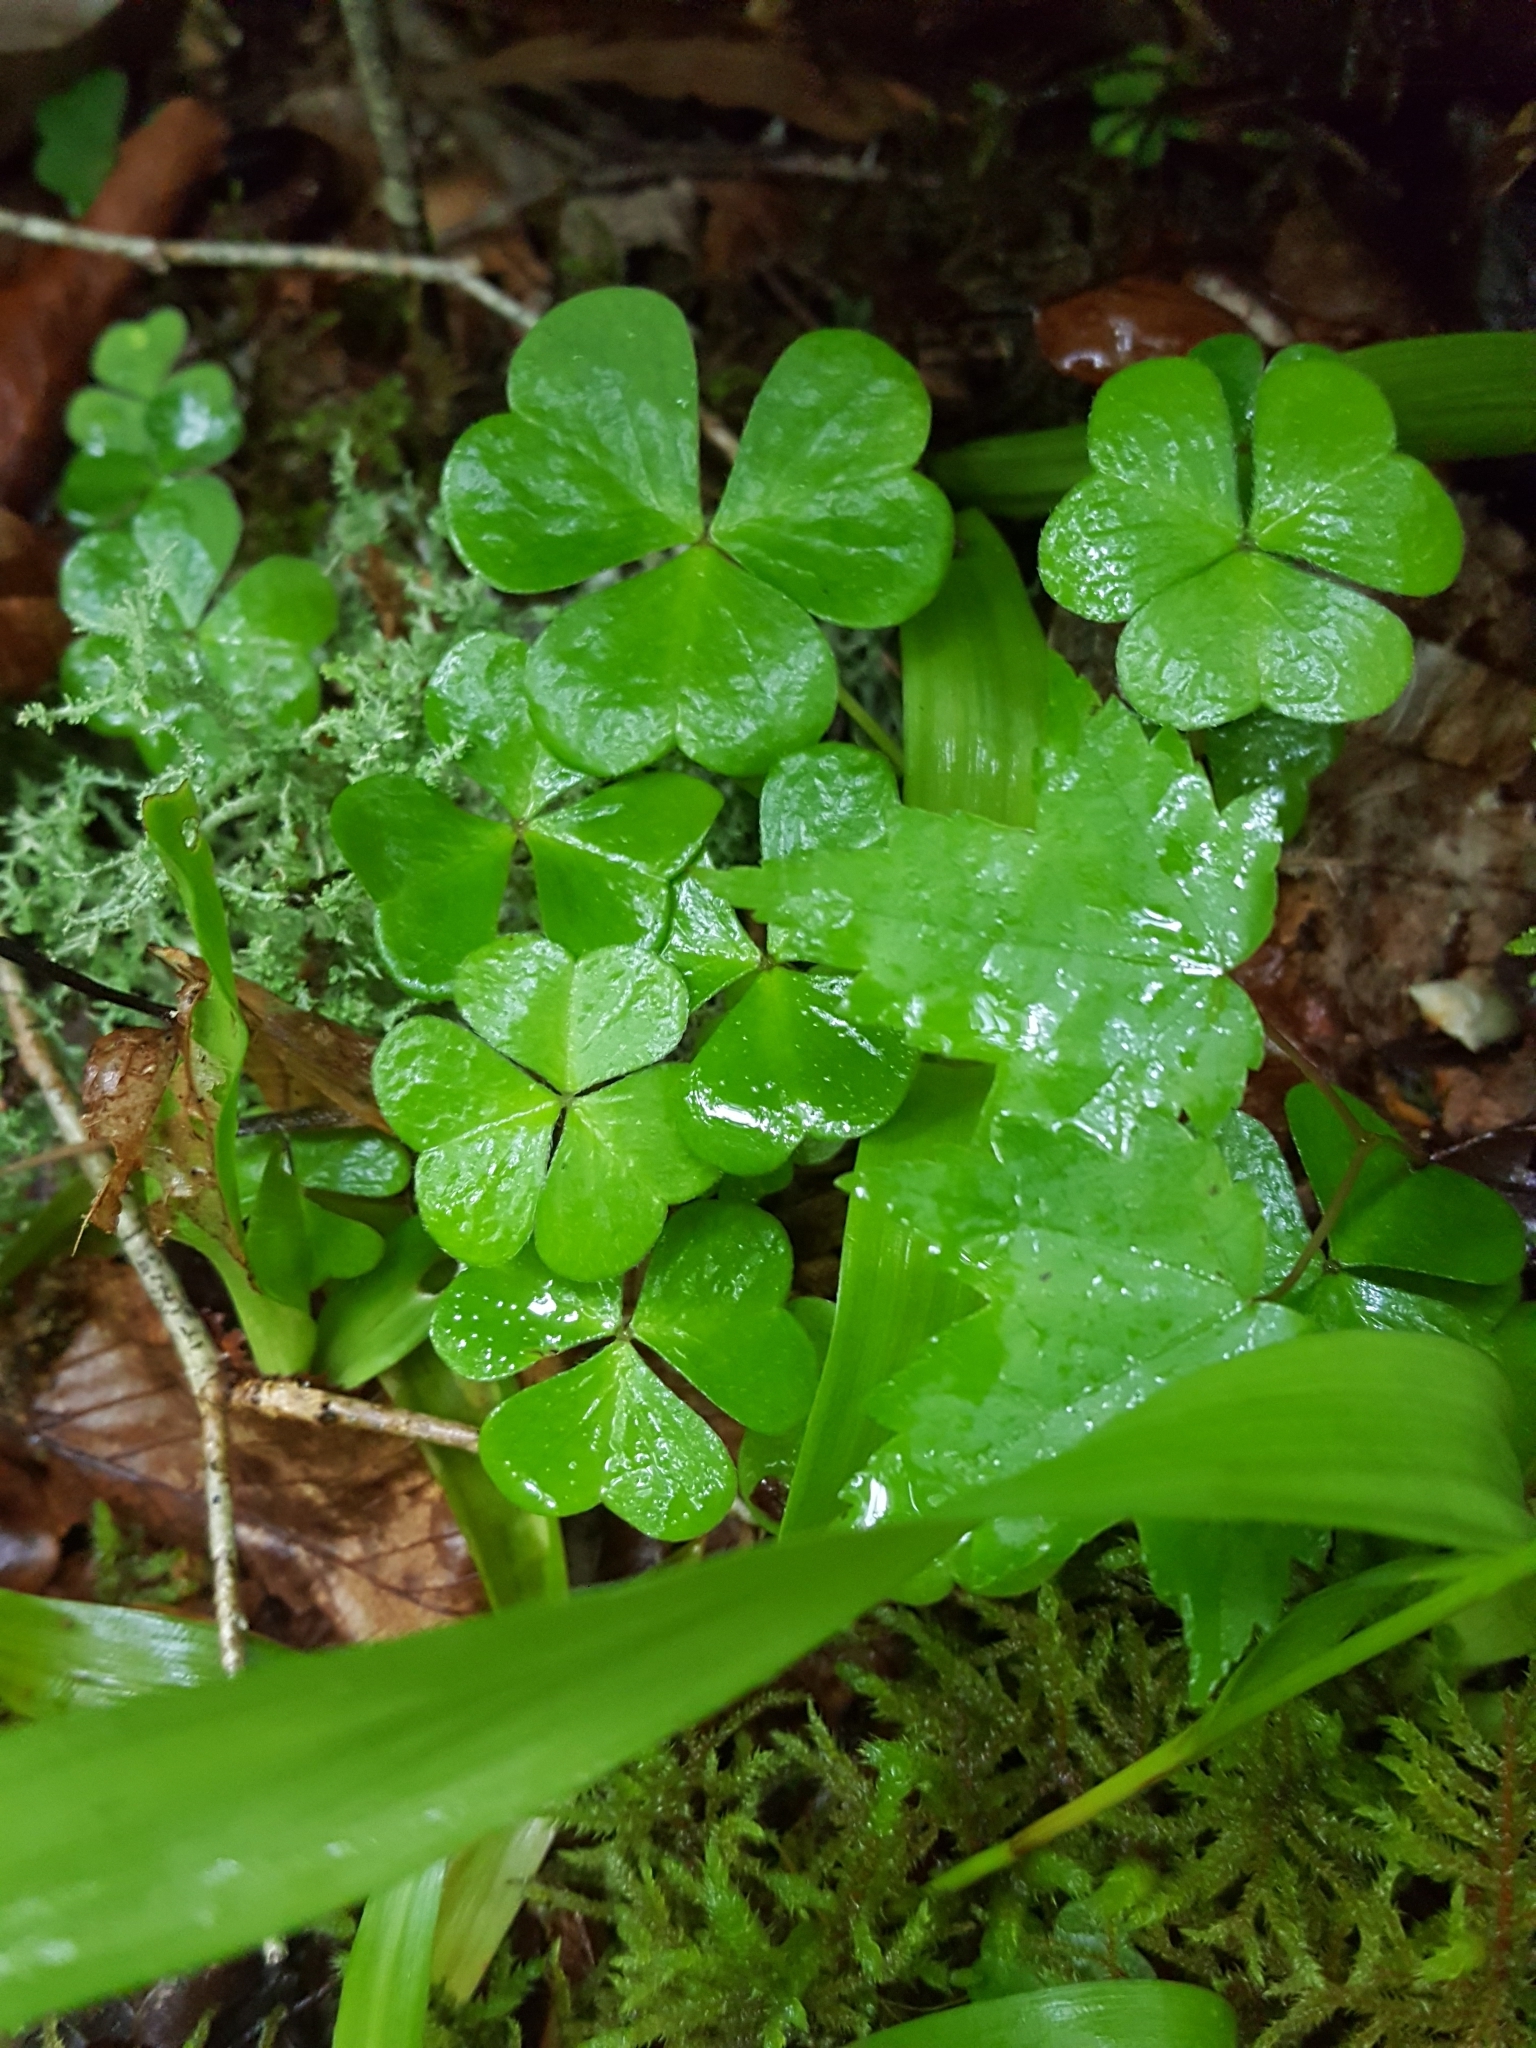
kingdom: Plantae
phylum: Tracheophyta
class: Magnoliopsida
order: Oxalidales
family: Oxalidaceae
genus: Oxalis
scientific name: Oxalis
